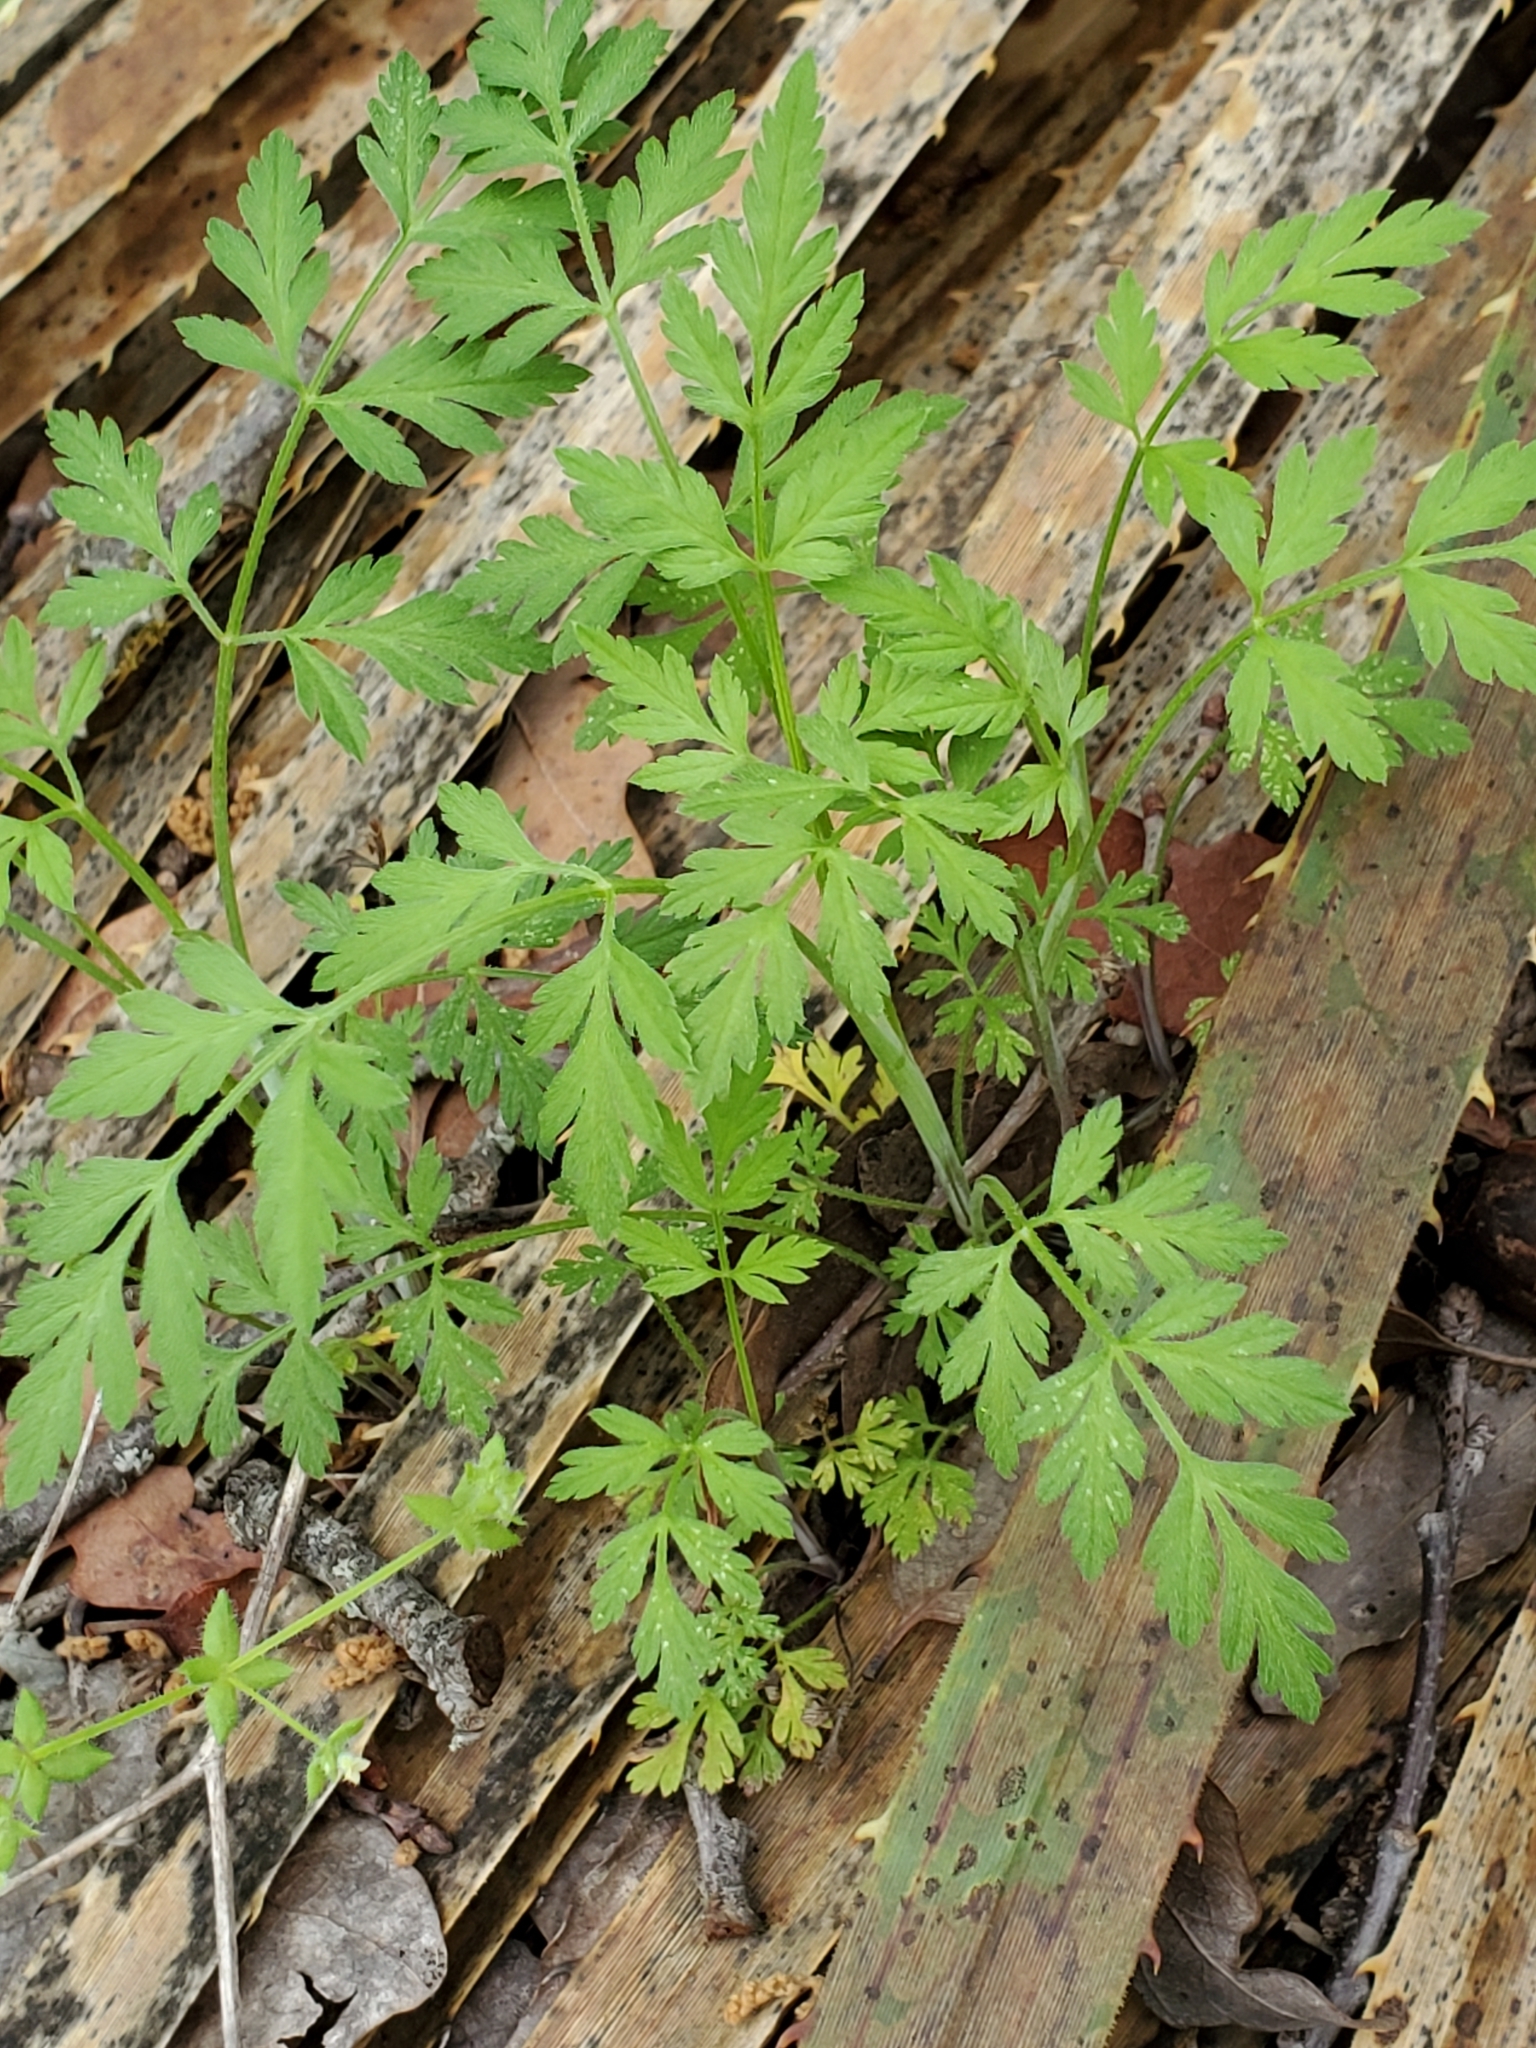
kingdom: Plantae
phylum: Tracheophyta
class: Magnoliopsida
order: Apiales
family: Apiaceae
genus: Chaerophyllum
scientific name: Chaerophyllum tainturieri
